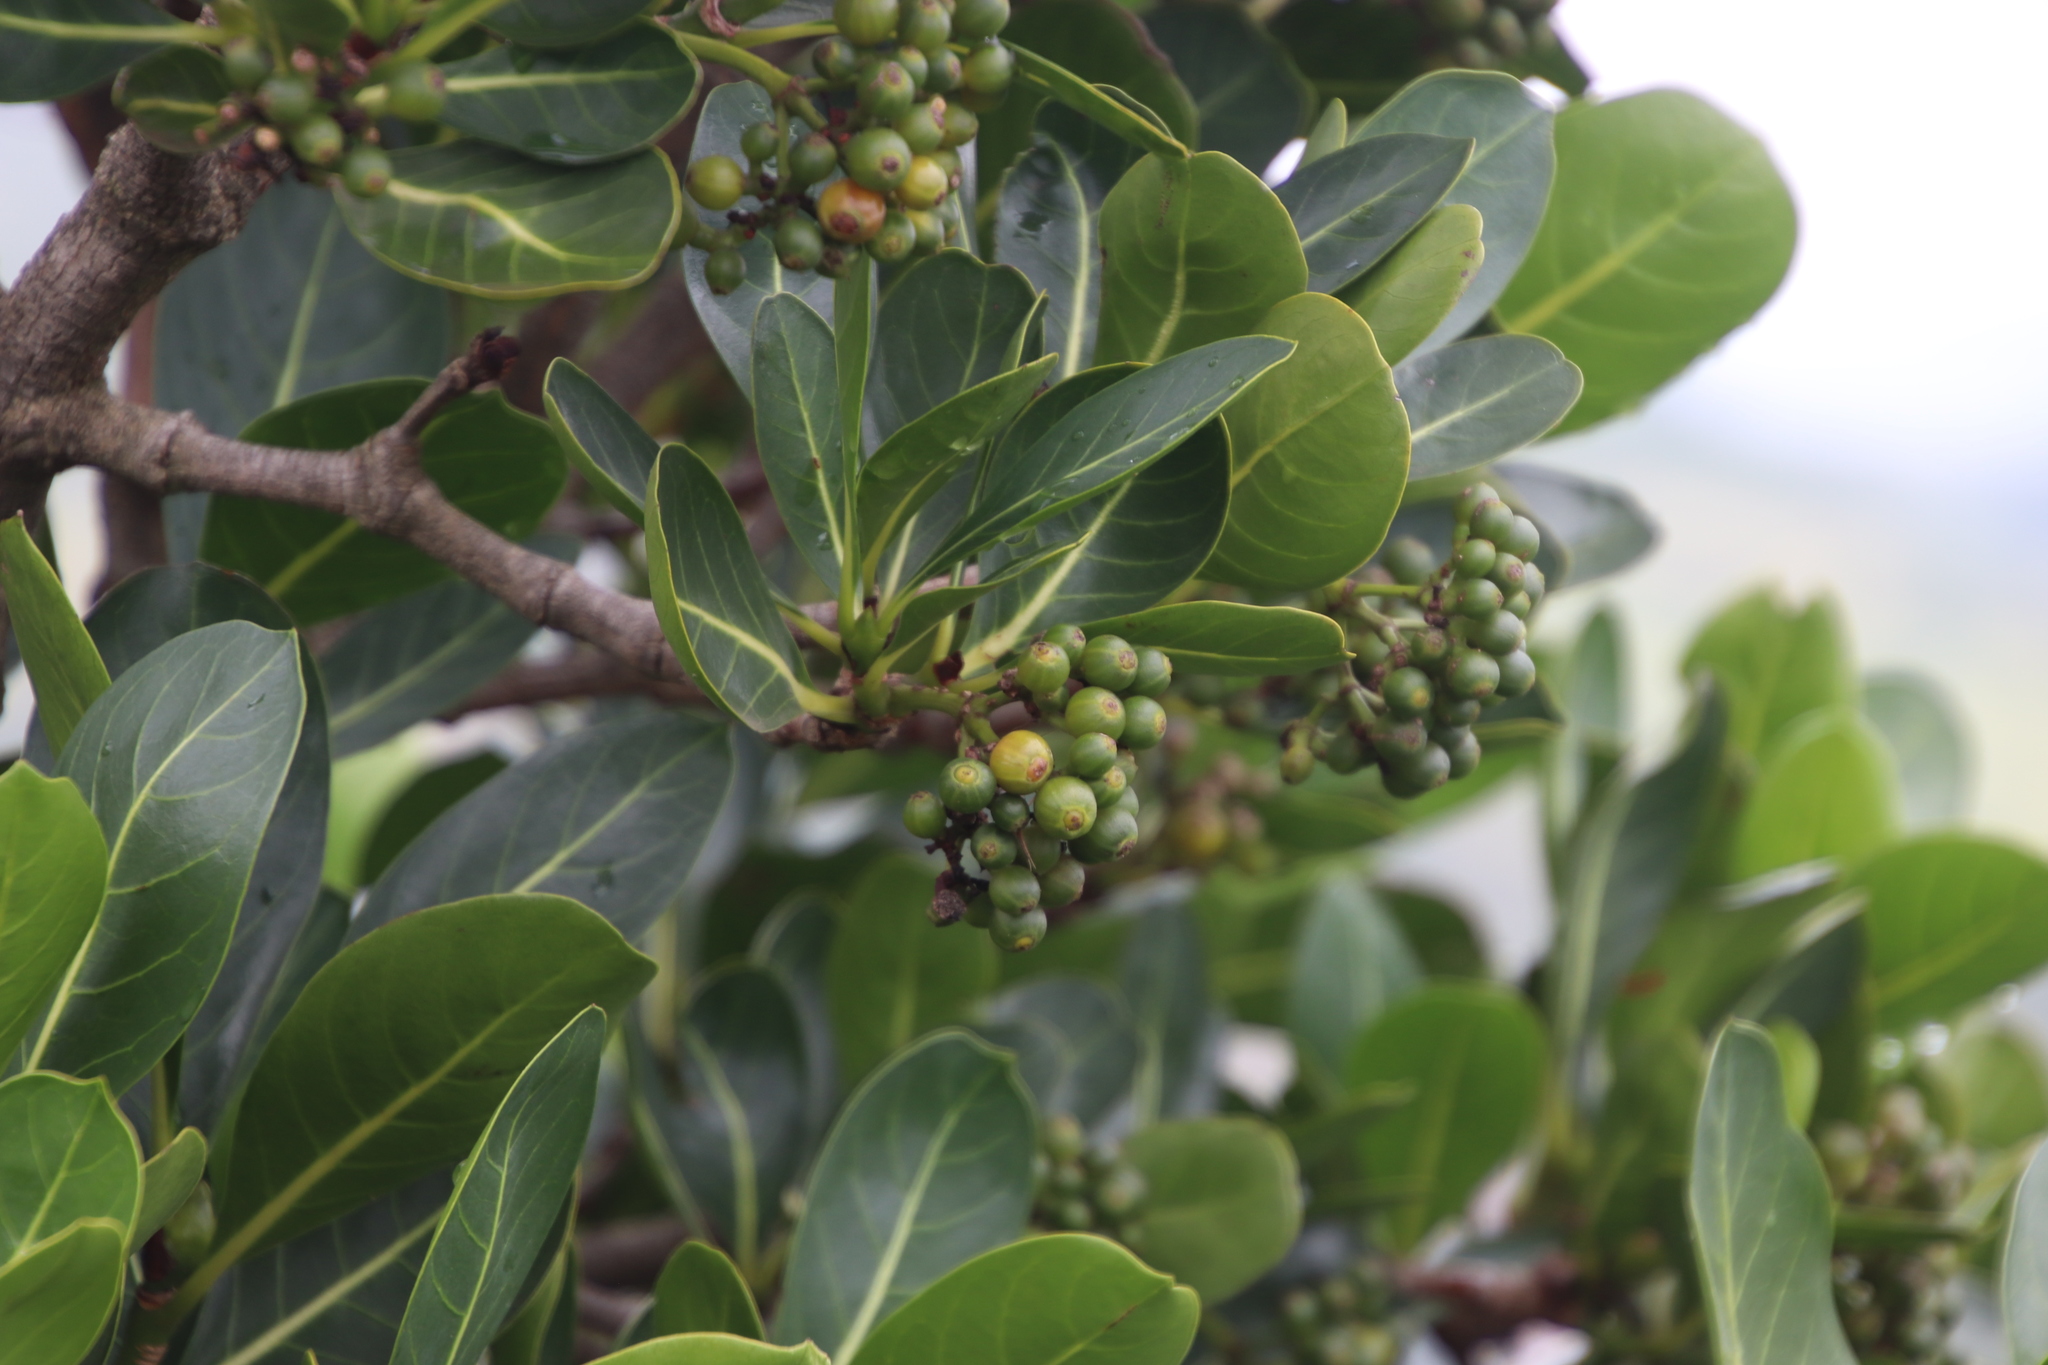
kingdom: Plantae
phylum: Tracheophyta
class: Magnoliopsida
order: Gentianales
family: Rubiaceae
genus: Psychotria
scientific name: Psychotria
